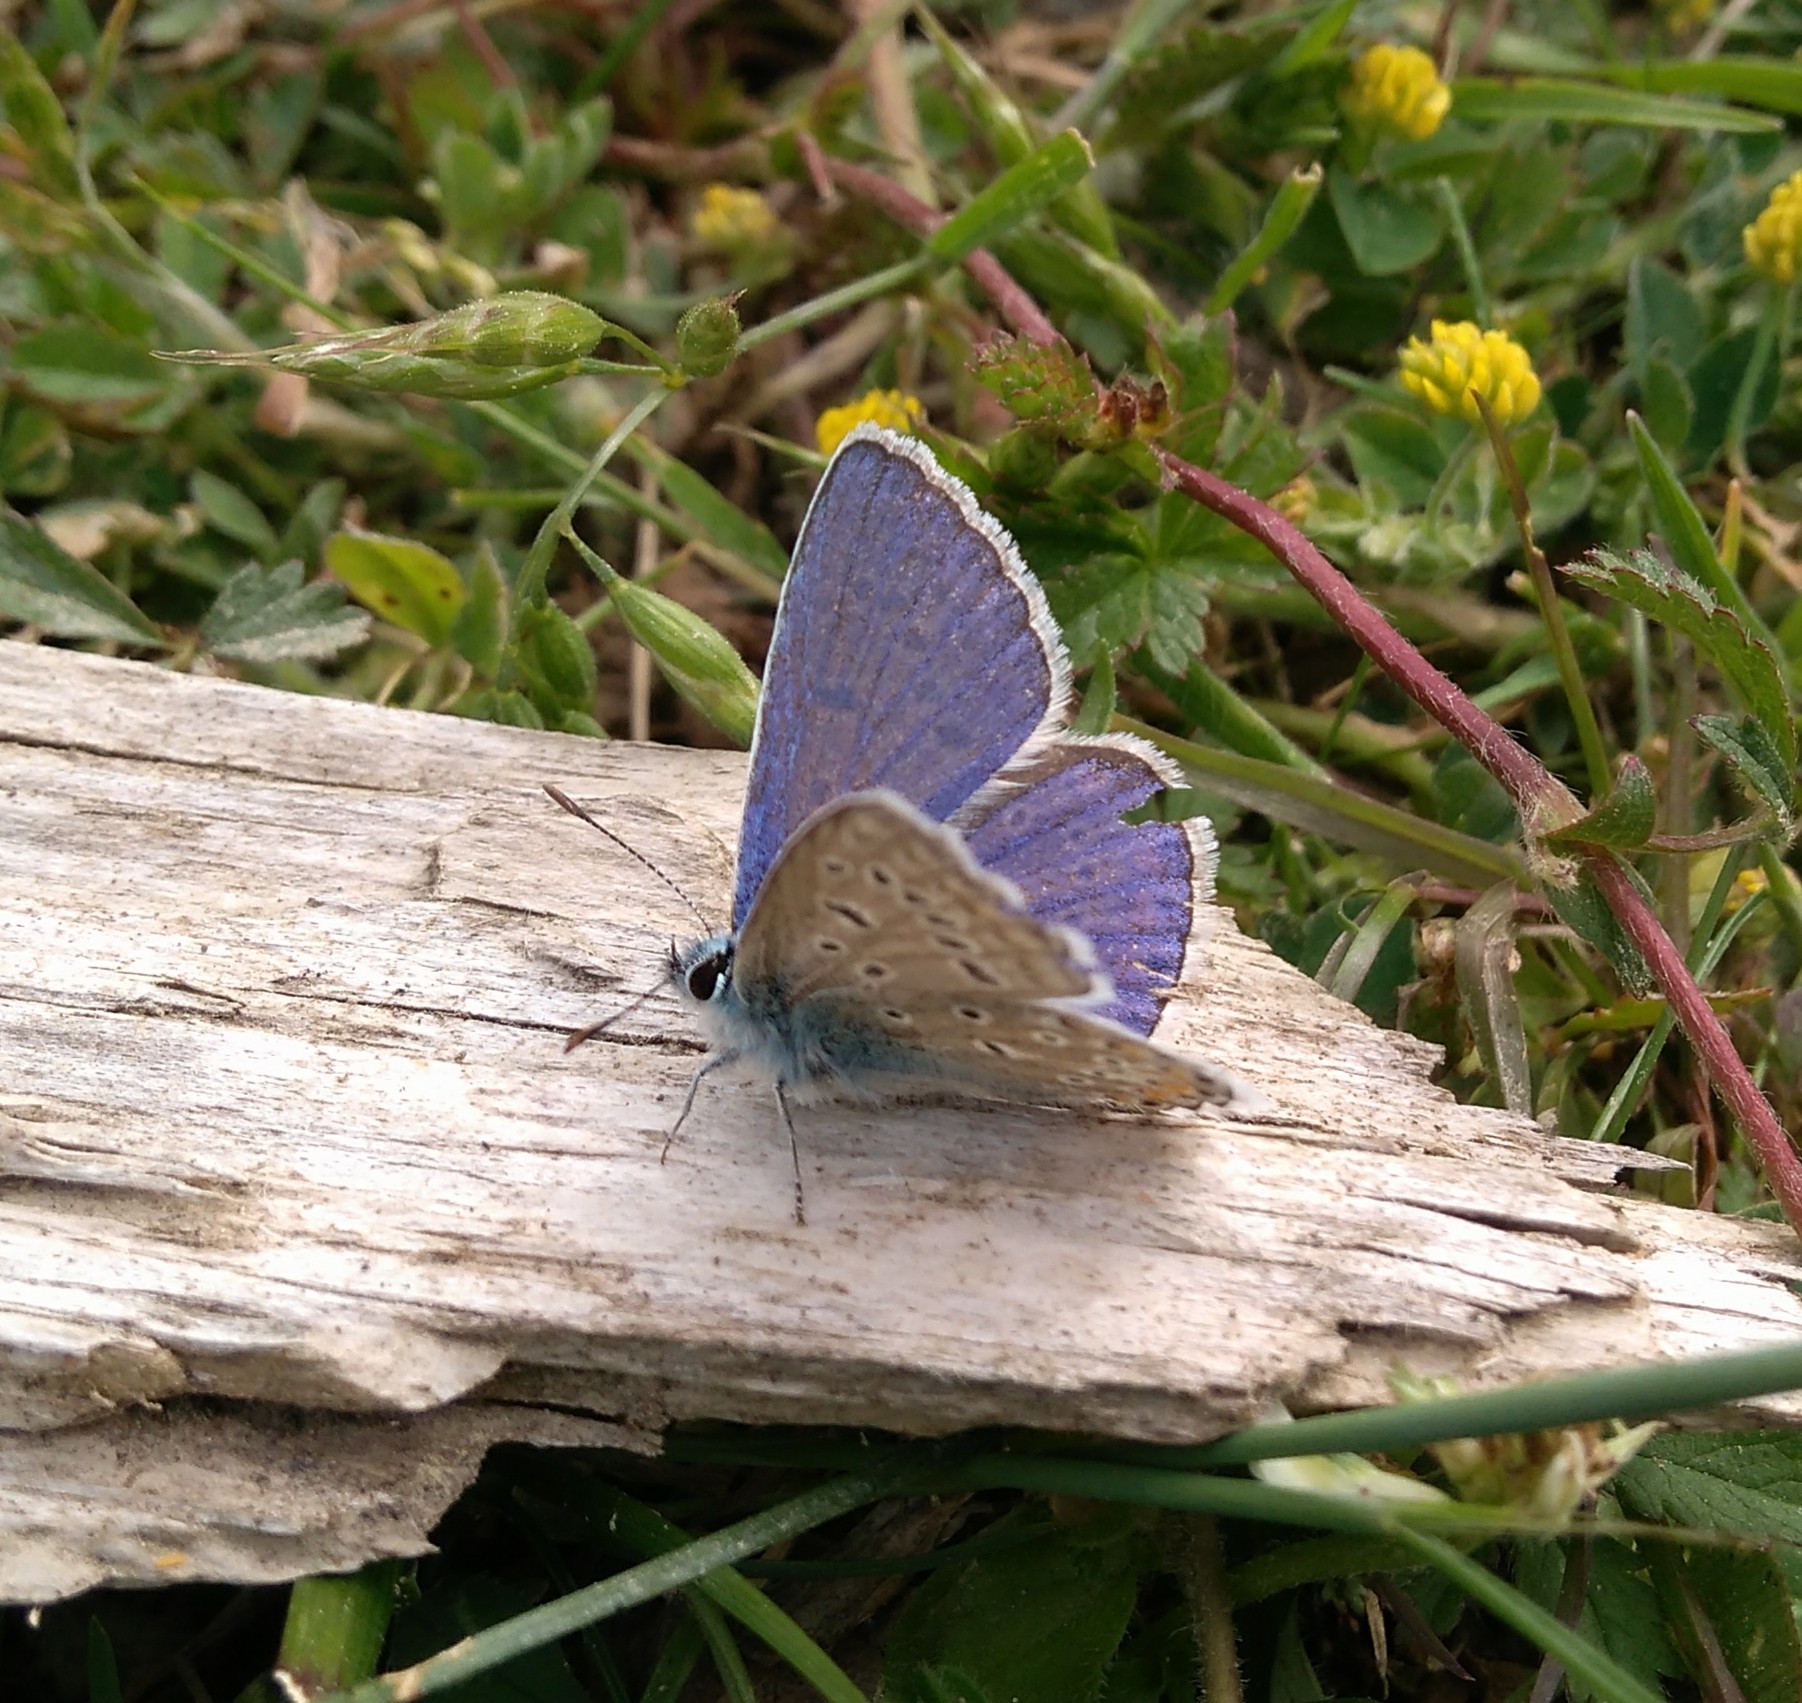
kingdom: Animalia
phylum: Arthropoda
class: Insecta
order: Lepidoptera
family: Lycaenidae
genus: Polyommatus
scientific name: Polyommatus icarus
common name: Common blue
